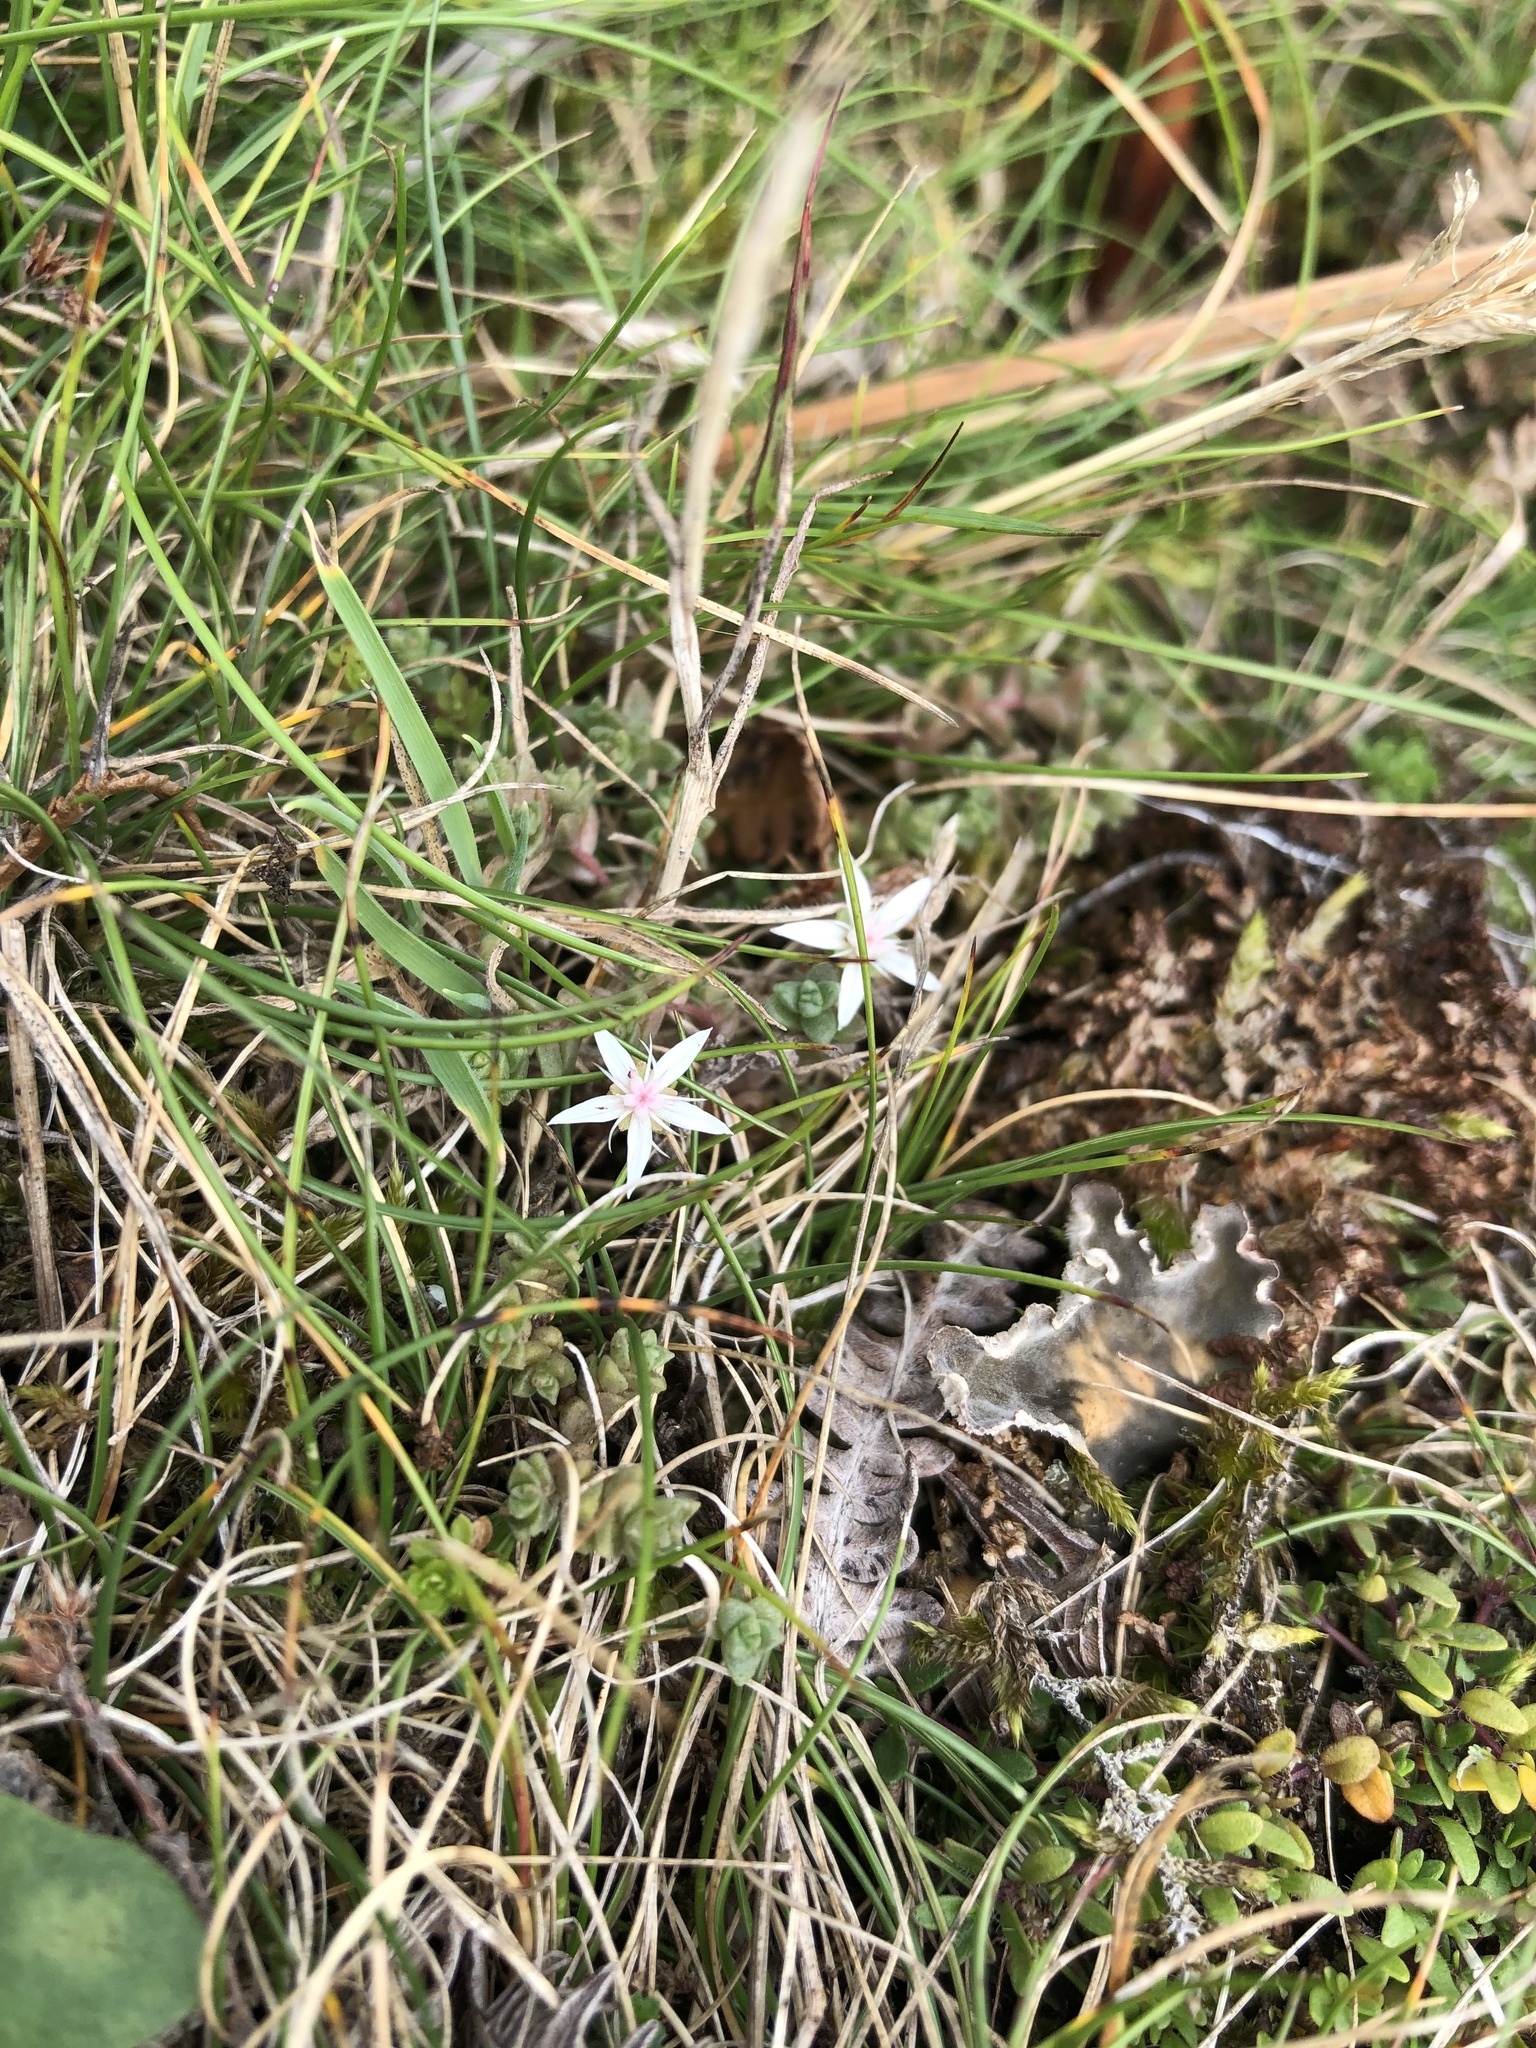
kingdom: Plantae
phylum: Tracheophyta
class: Magnoliopsida
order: Saxifragales
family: Crassulaceae
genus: Sedum
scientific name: Sedum anglicum
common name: English stonecrop
